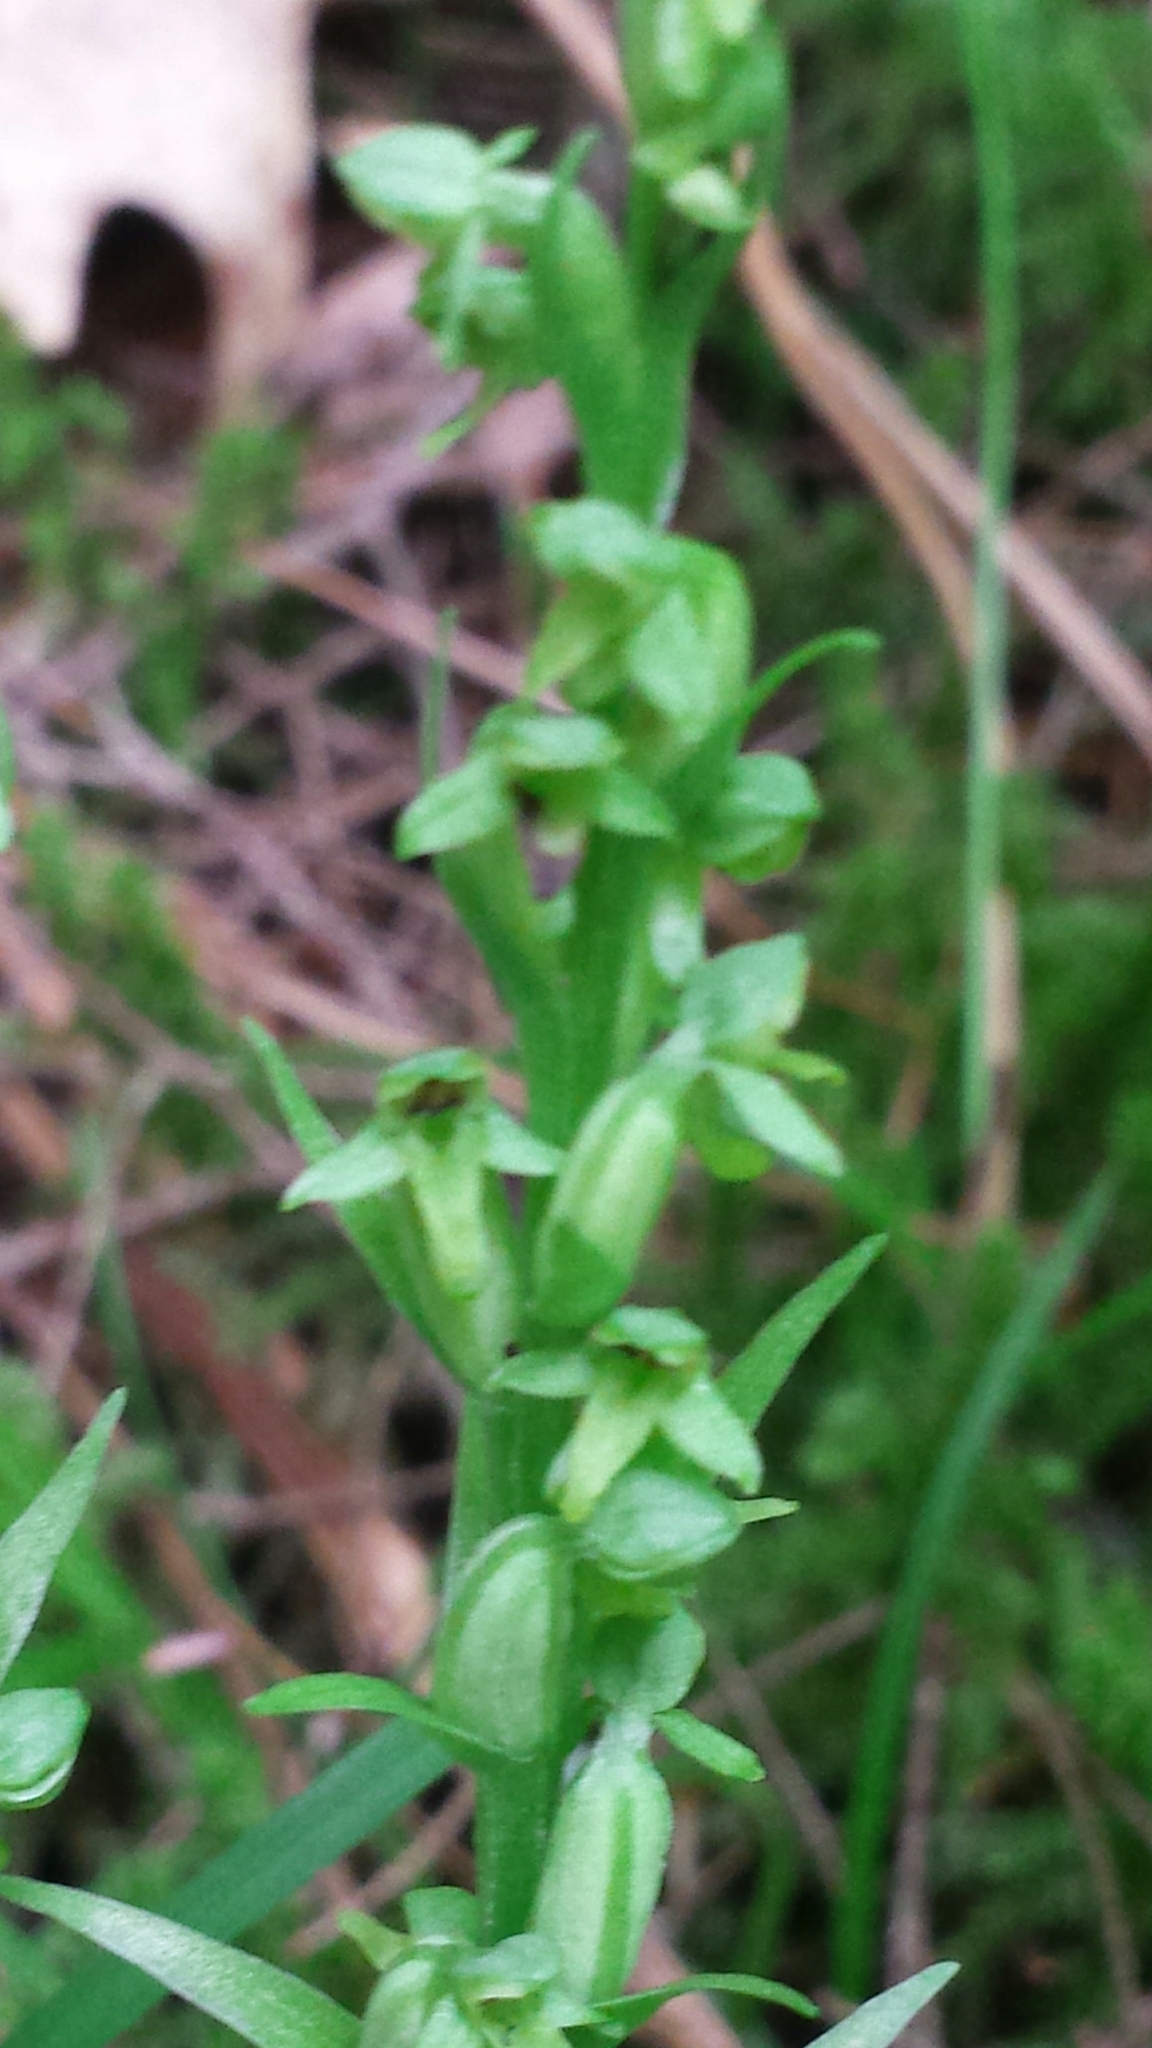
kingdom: Plantae
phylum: Tracheophyta
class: Liliopsida
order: Asparagales
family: Orchidaceae
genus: Platanthera
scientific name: Platanthera aquilonis
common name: Northern green orchid
